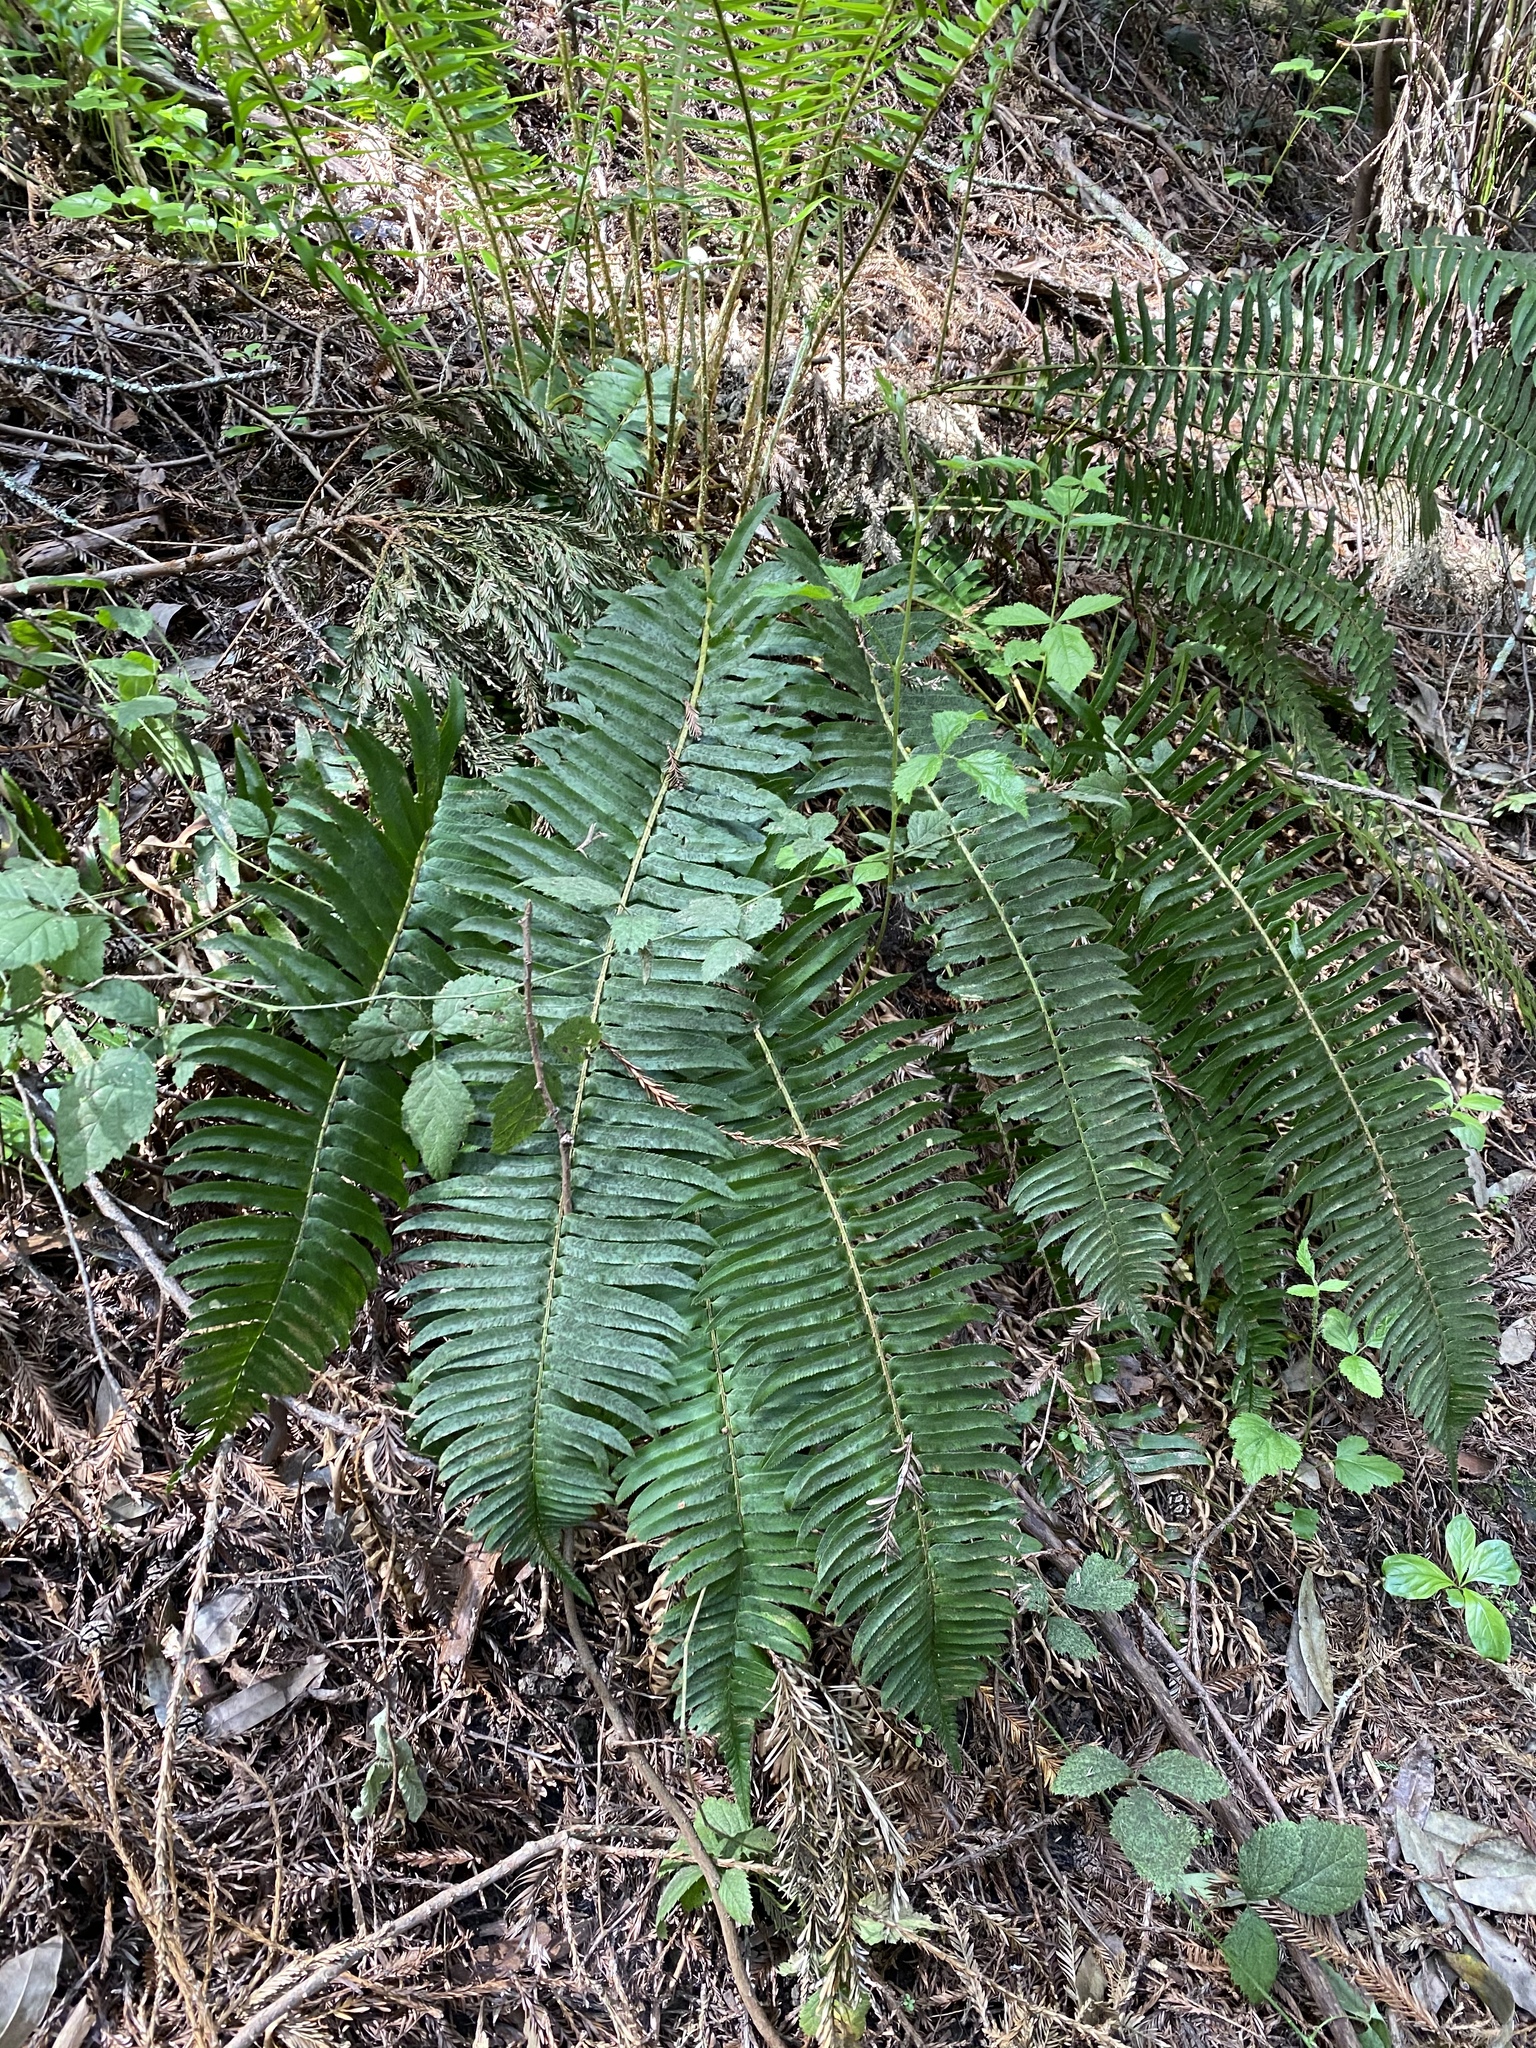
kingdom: Plantae
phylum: Tracheophyta
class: Polypodiopsida
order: Polypodiales
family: Dryopteridaceae
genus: Polystichum
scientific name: Polystichum munitum
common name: Western sword-fern
